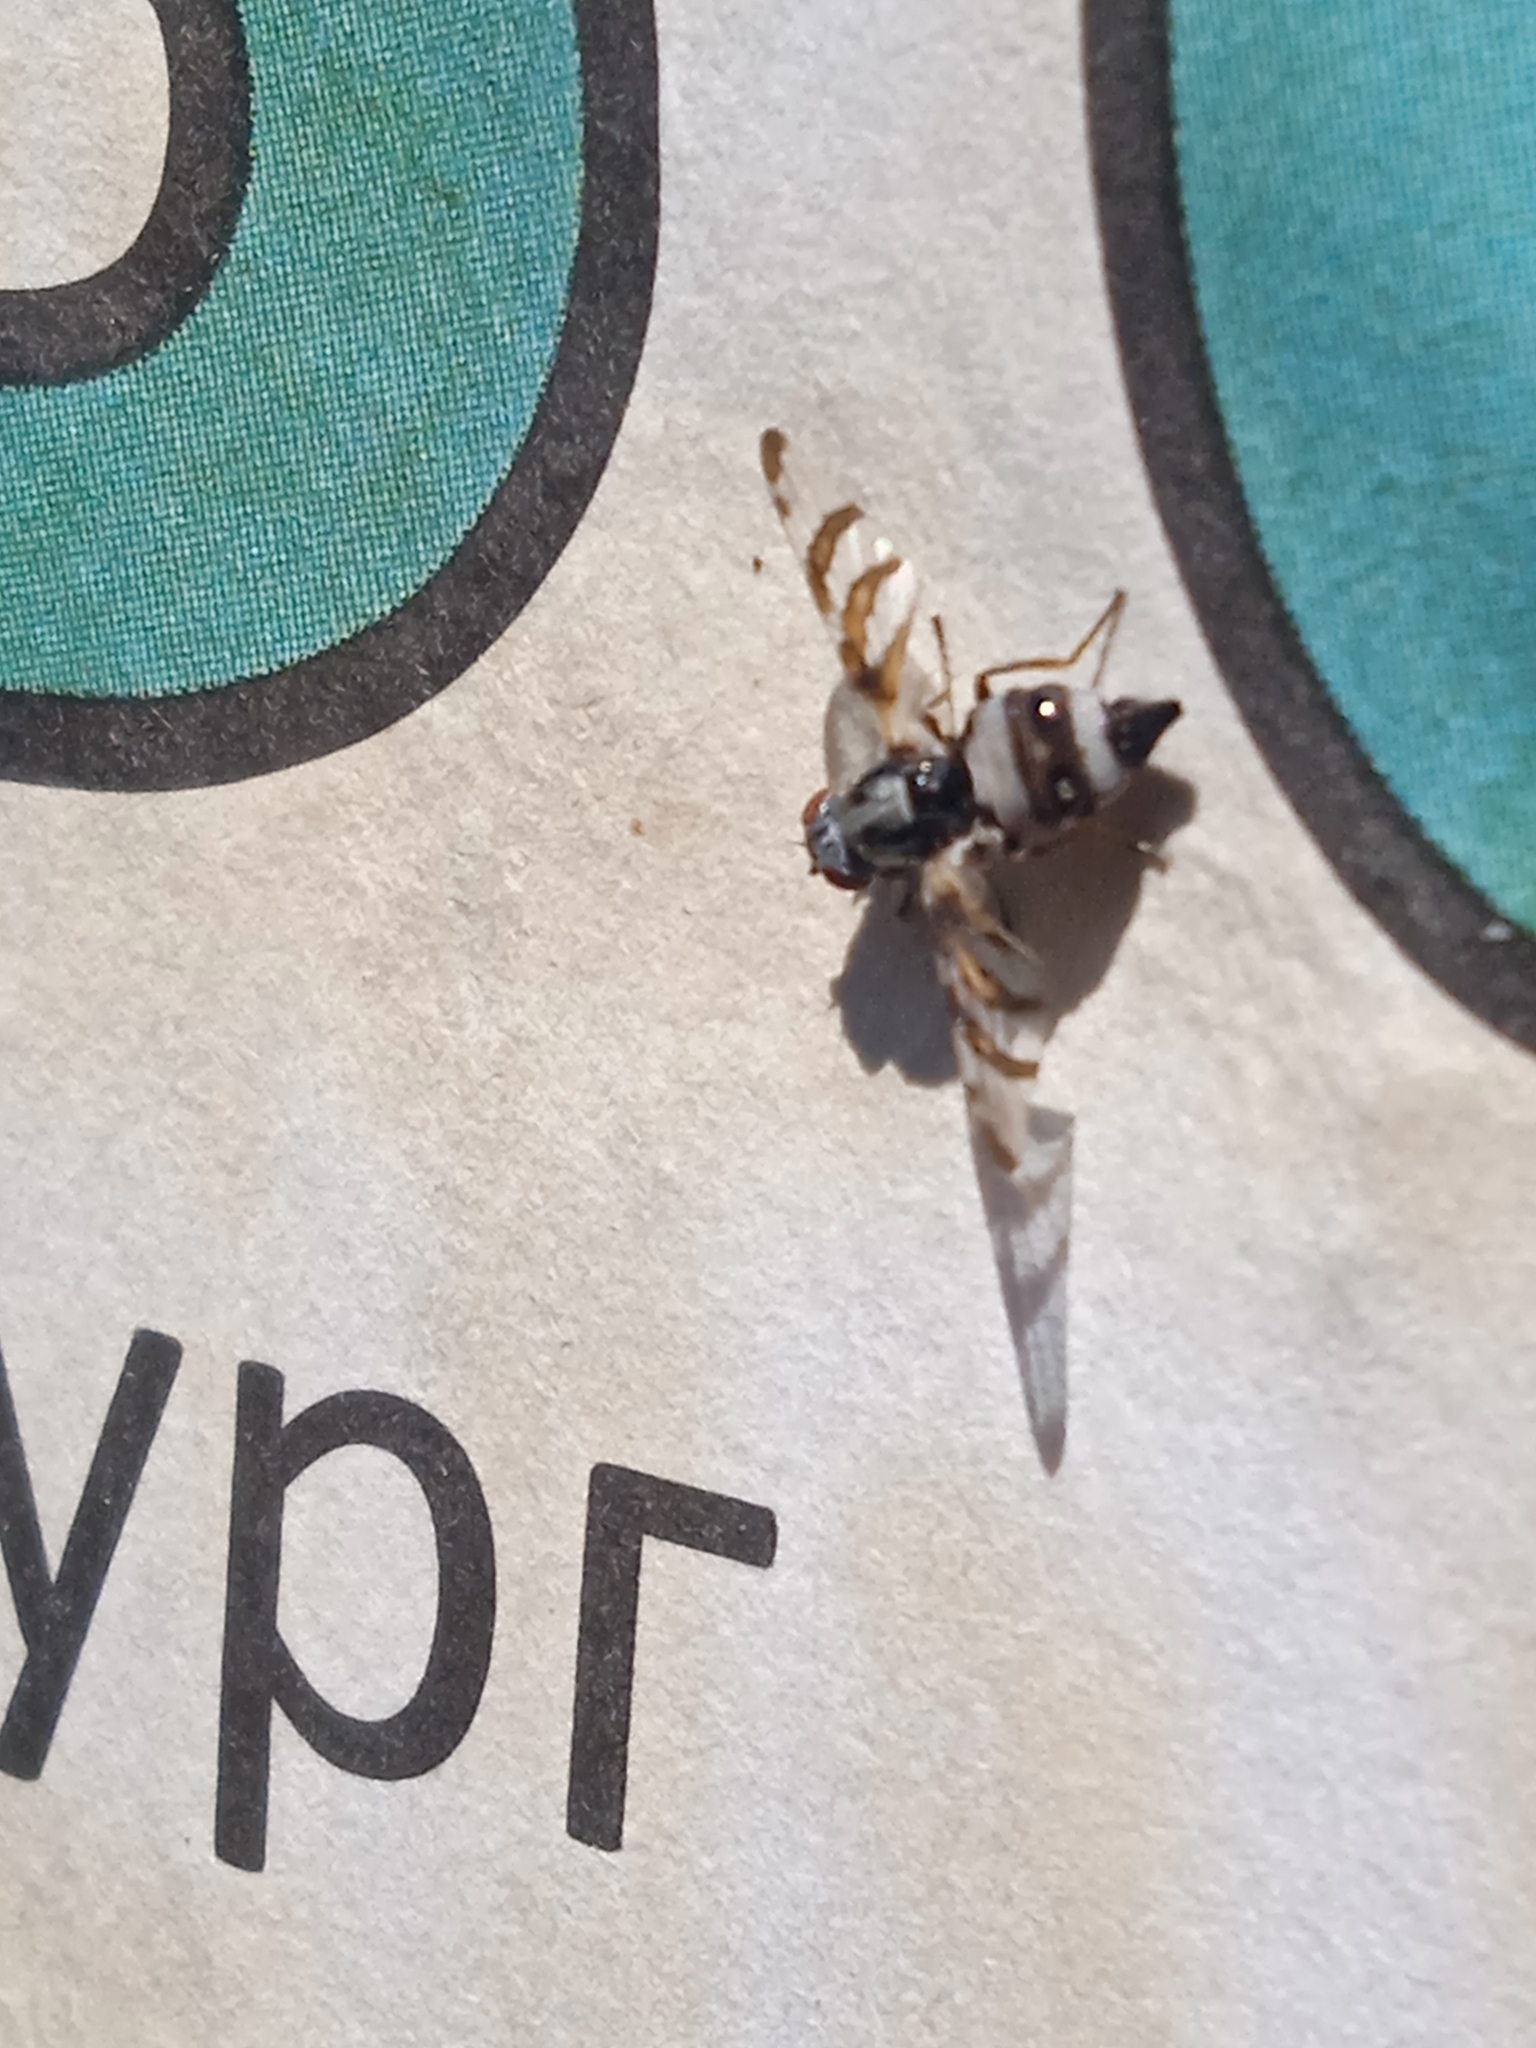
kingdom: Animalia
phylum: Arthropoda
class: Insecta
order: Diptera
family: Ulidiidae
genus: Myennis
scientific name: Myennis octopunctata
